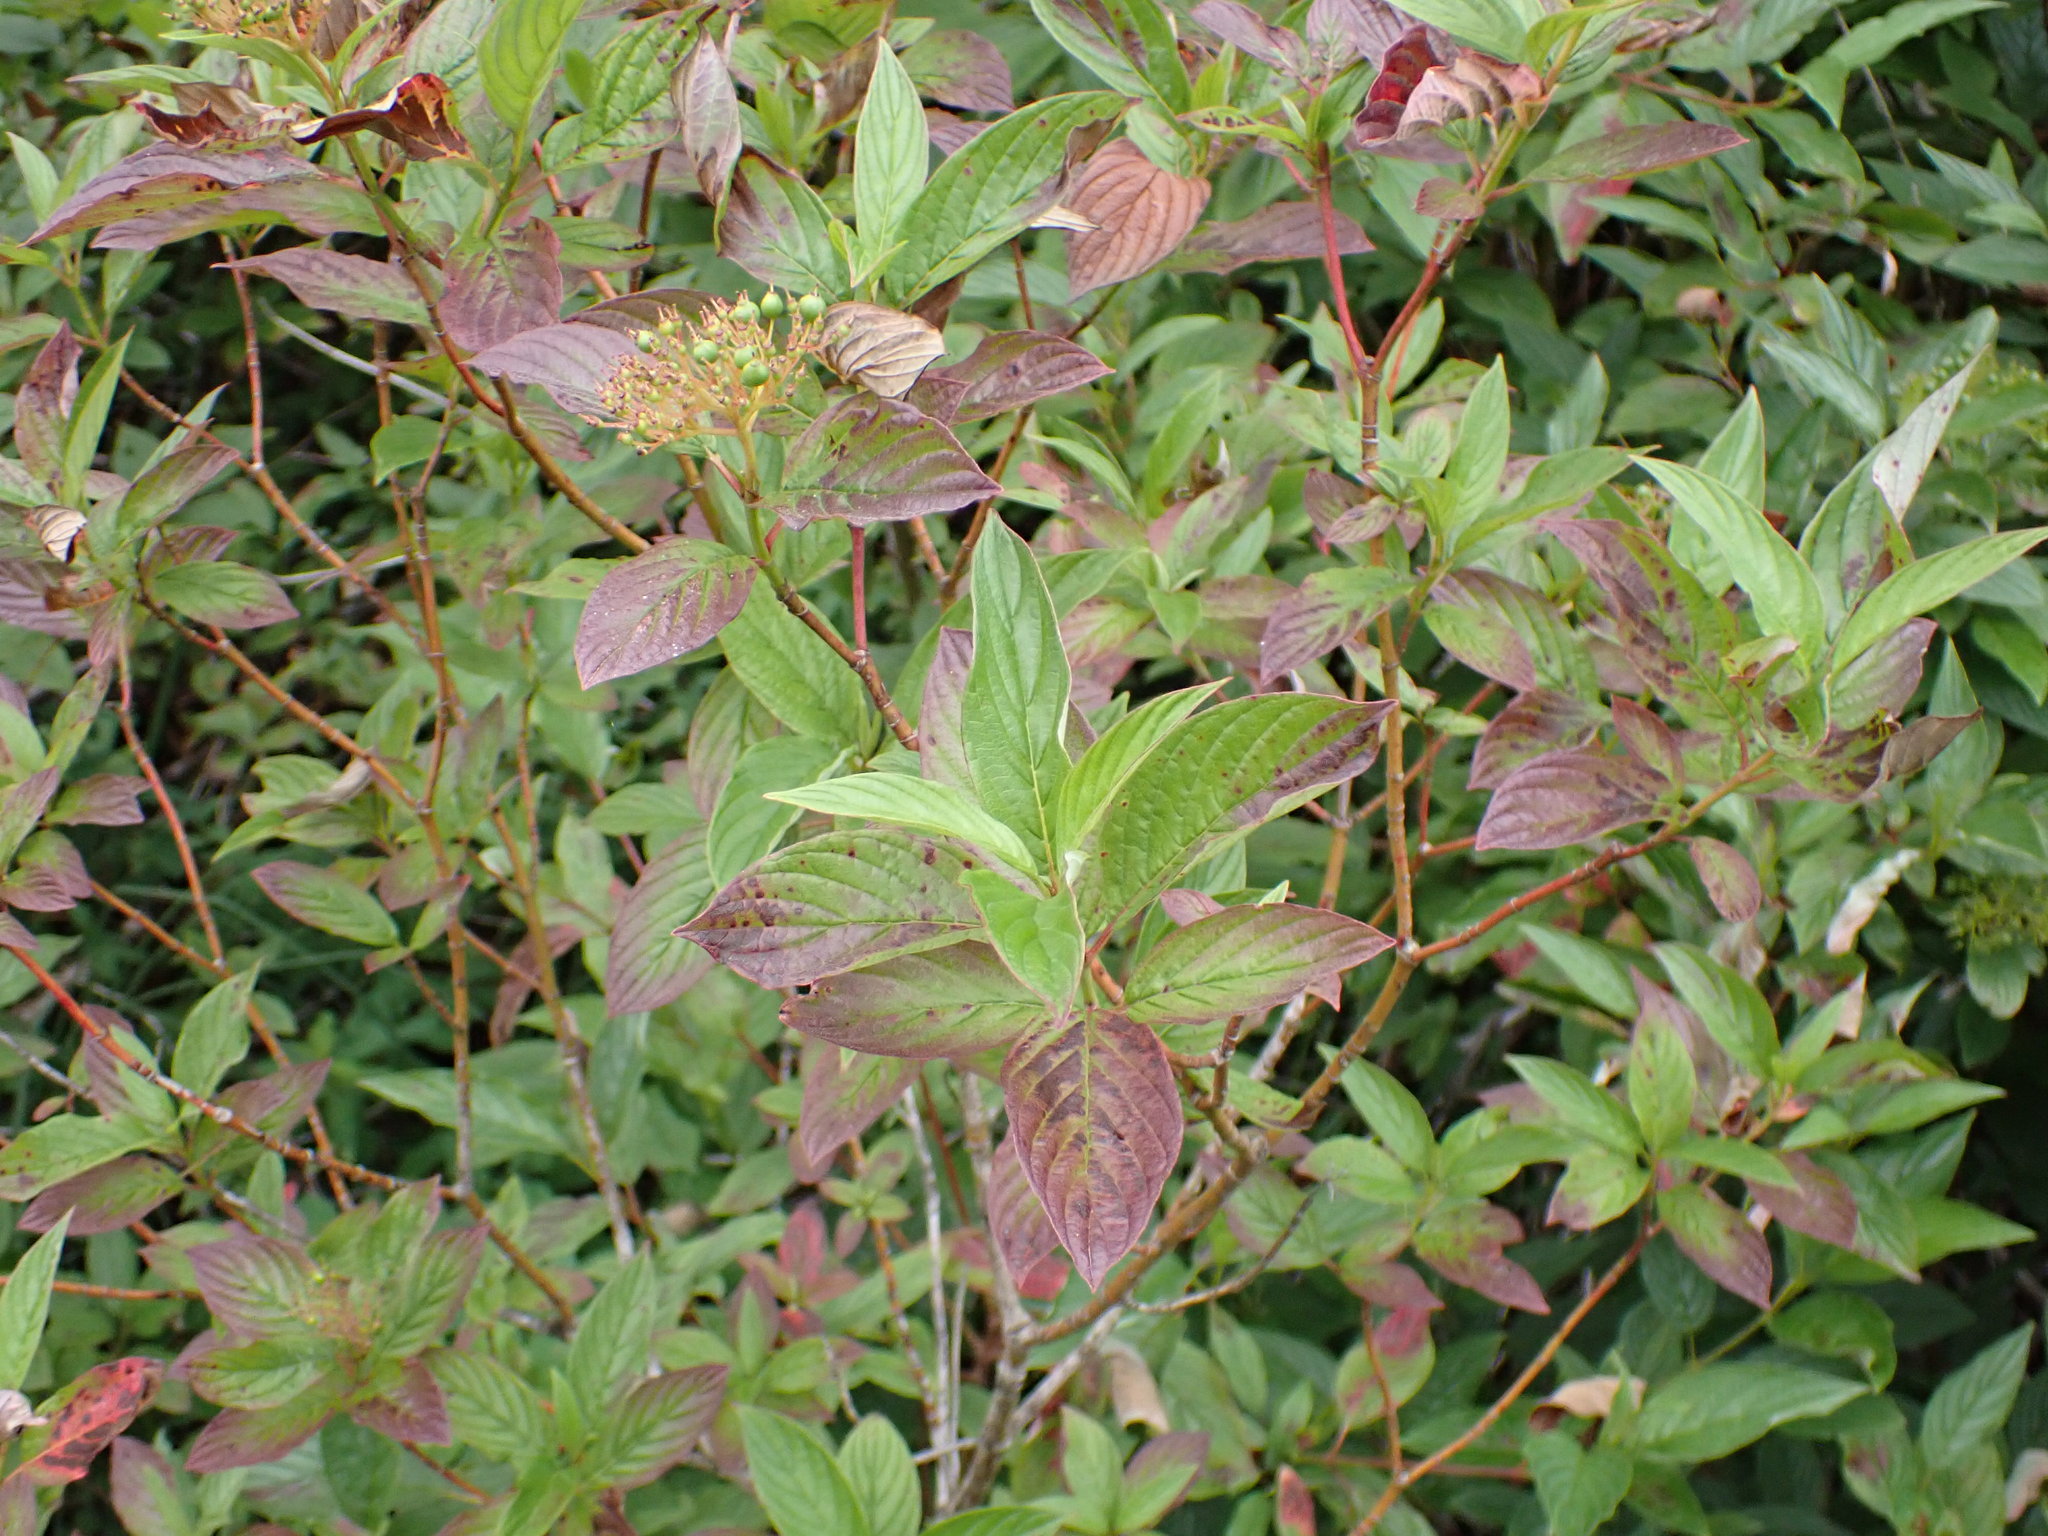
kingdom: Plantae
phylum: Tracheophyta
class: Magnoliopsida
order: Cornales
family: Cornaceae
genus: Cornus
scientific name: Cornus sericea
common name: Red-osier dogwood
